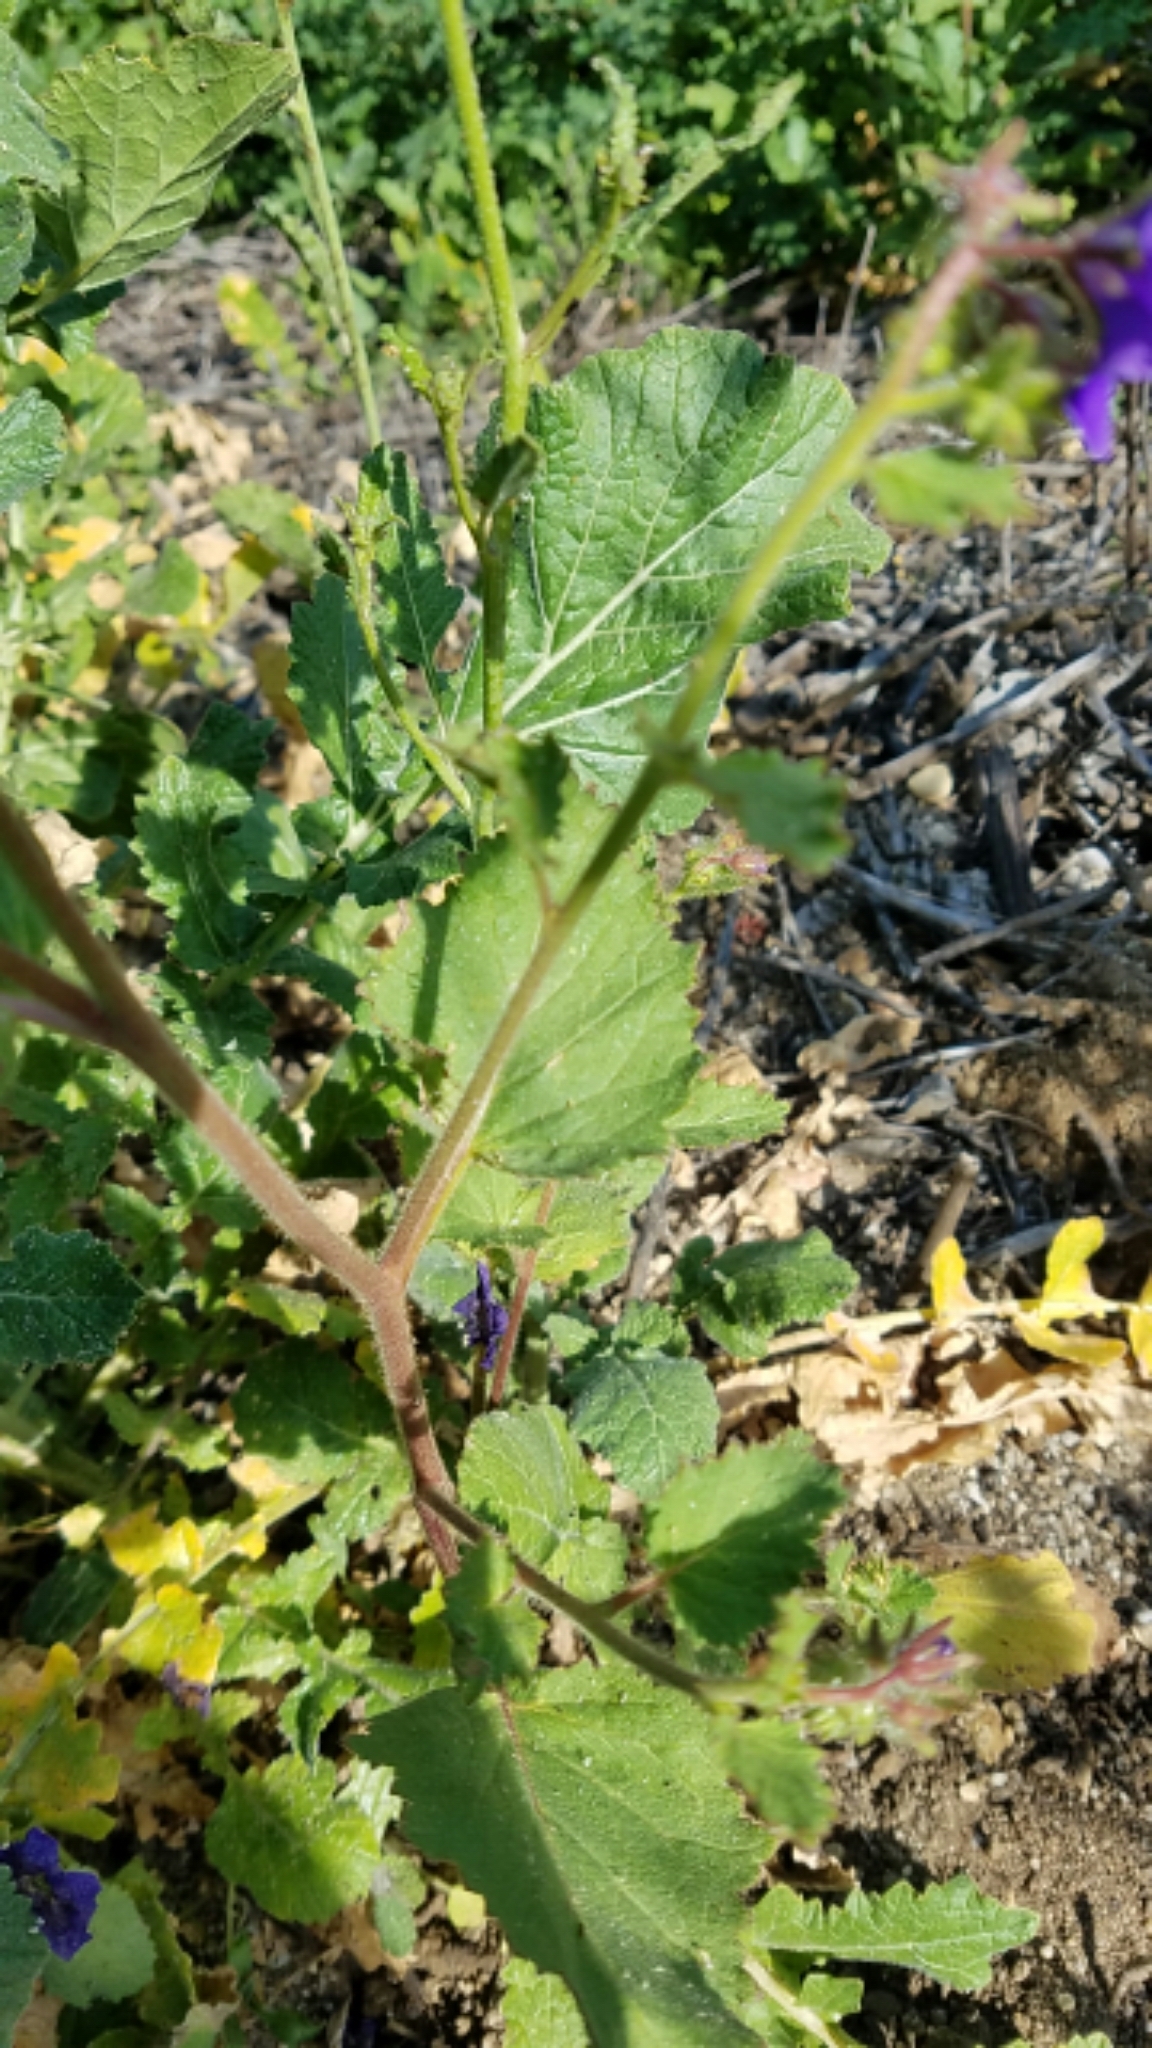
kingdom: Plantae
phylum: Tracheophyta
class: Magnoliopsida
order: Boraginales
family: Hydrophyllaceae
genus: Phacelia
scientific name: Phacelia parryi
